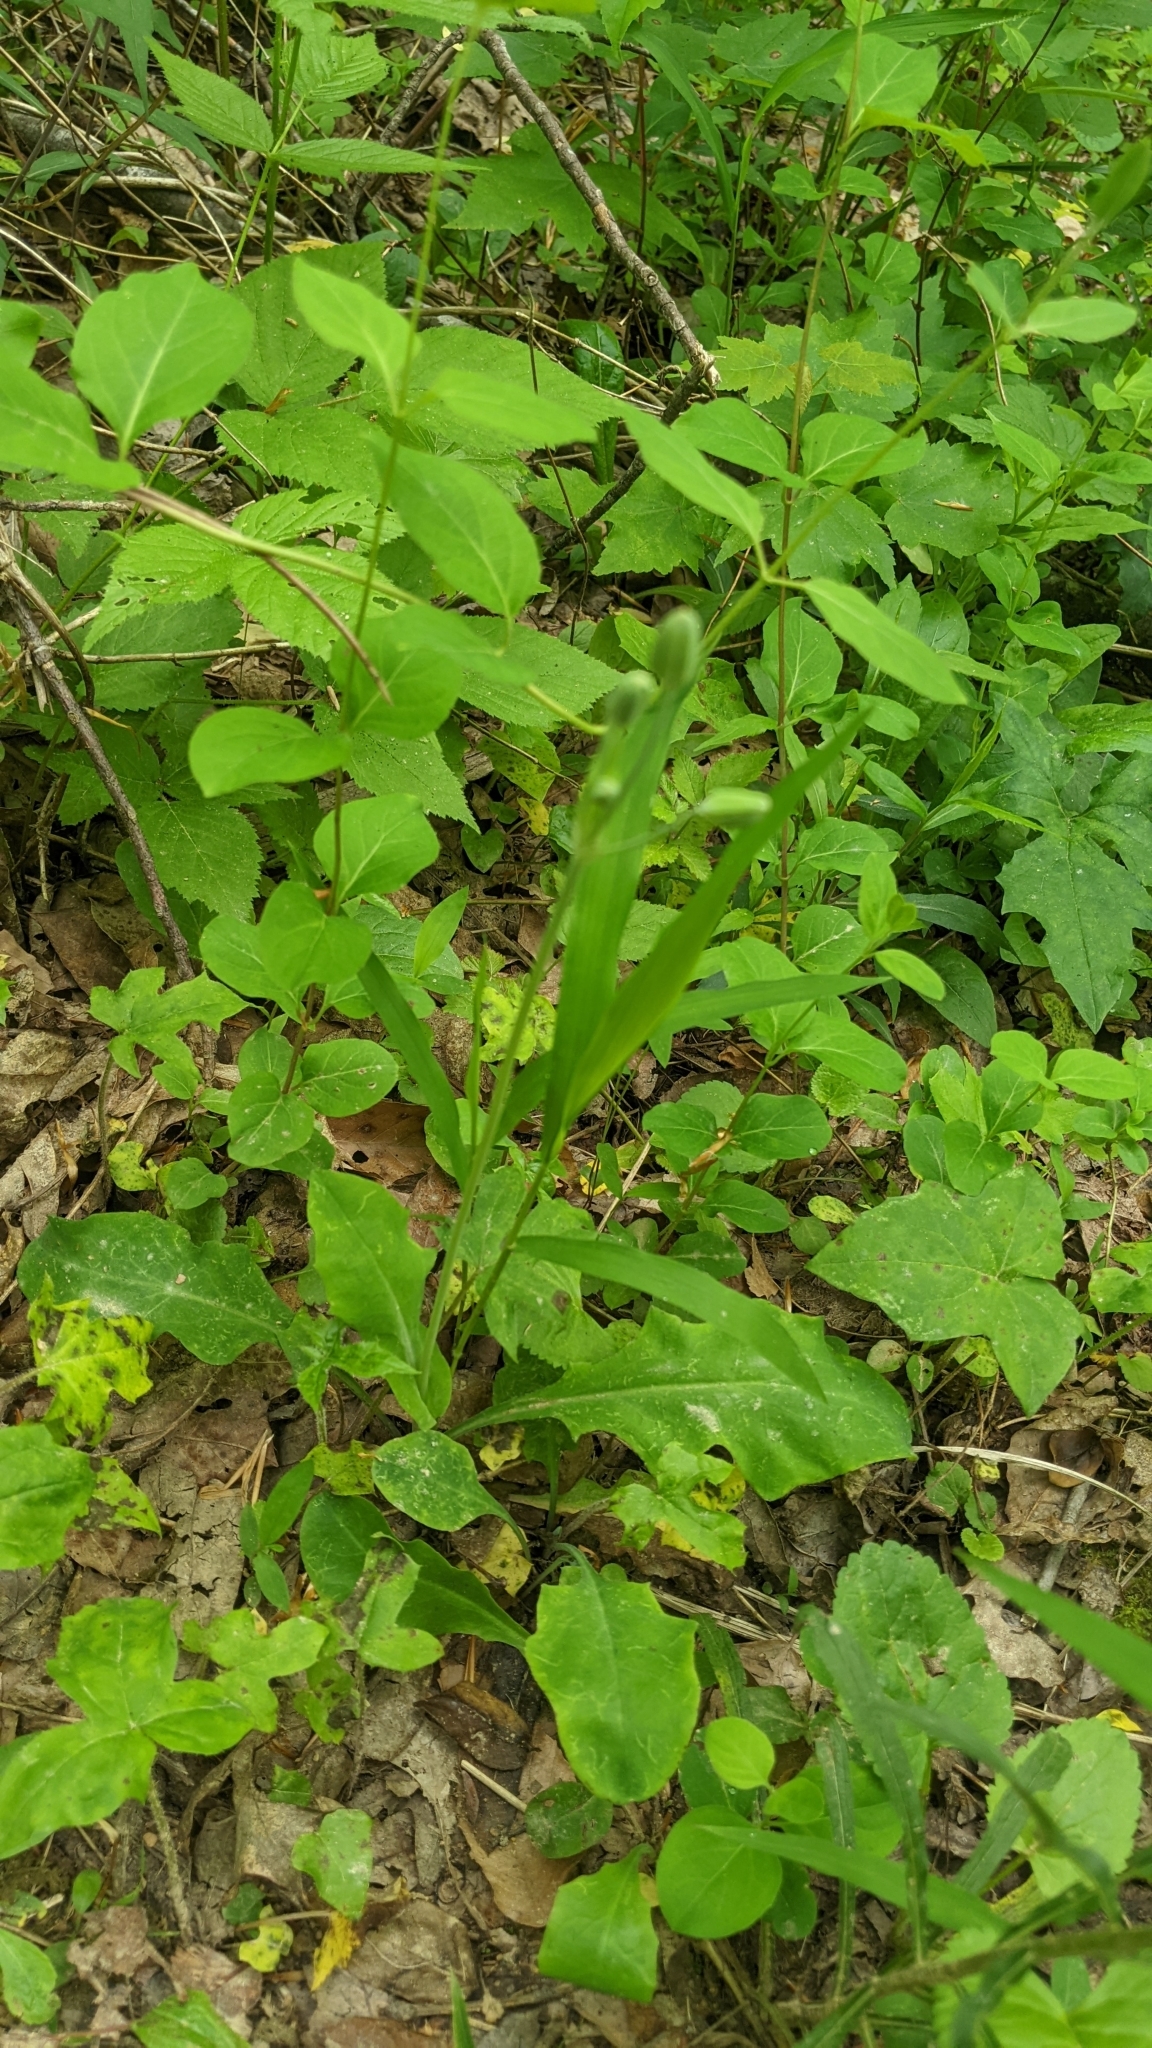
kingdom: Plantae
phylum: Tracheophyta
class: Magnoliopsida
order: Asterales
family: Asteraceae
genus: Krigia
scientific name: Krigia biflora
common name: Orange dwarf-dandelion
